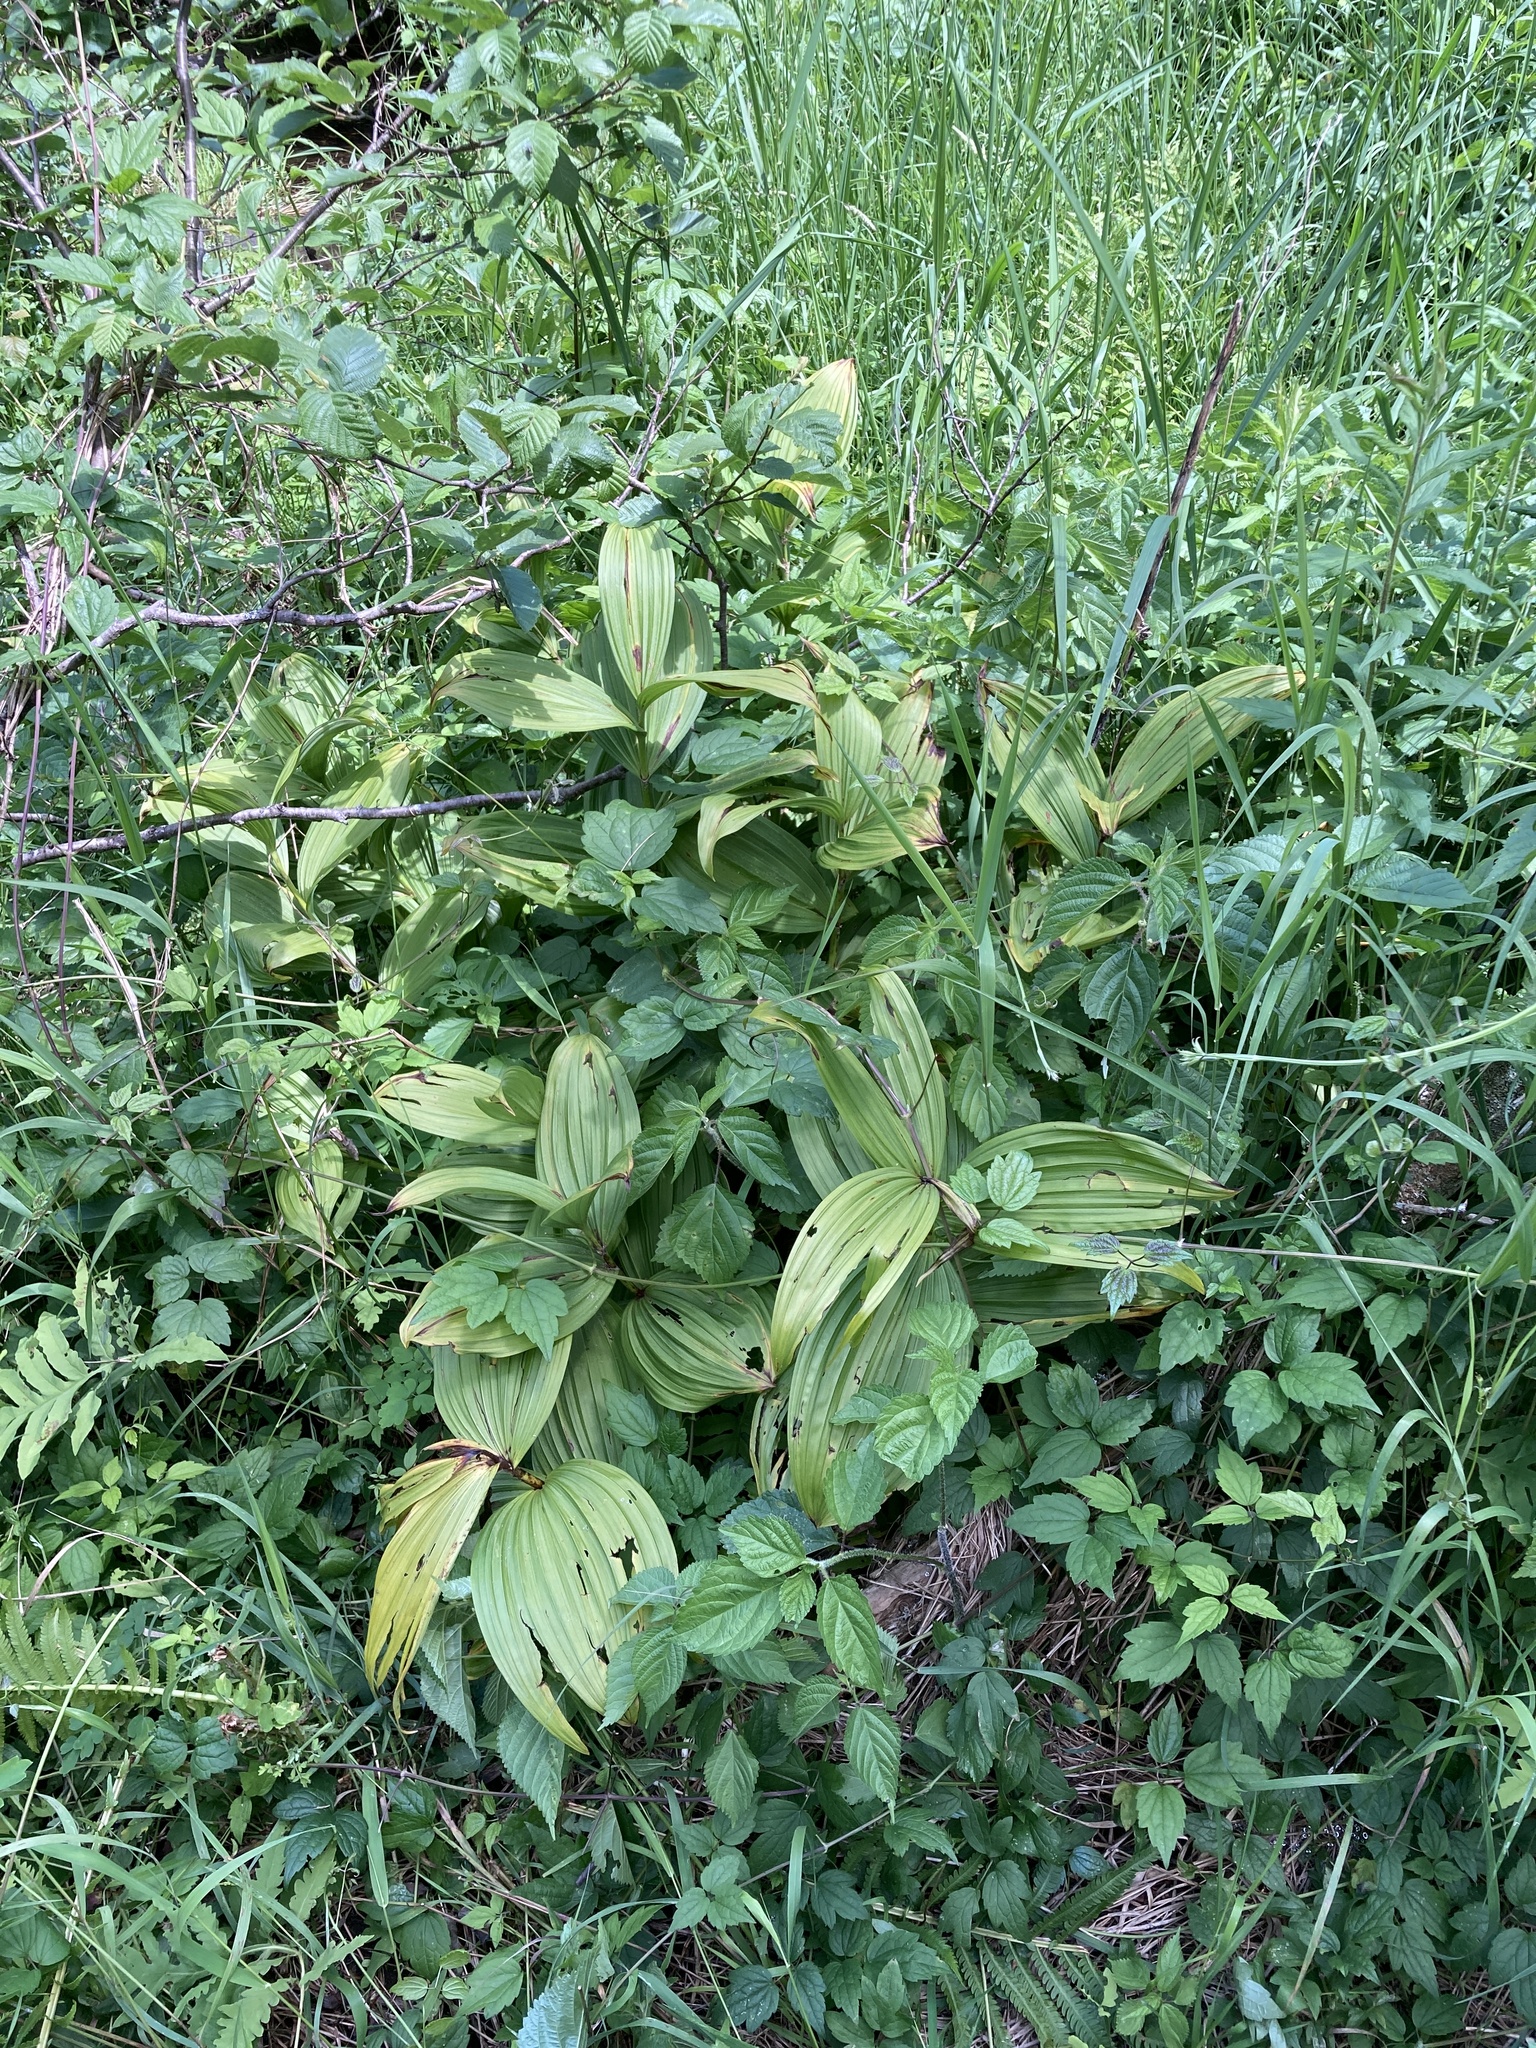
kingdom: Plantae
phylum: Tracheophyta
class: Liliopsida
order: Liliales
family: Melanthiaceae
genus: Veratrum
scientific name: Veratrum viride
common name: American false hellebore
